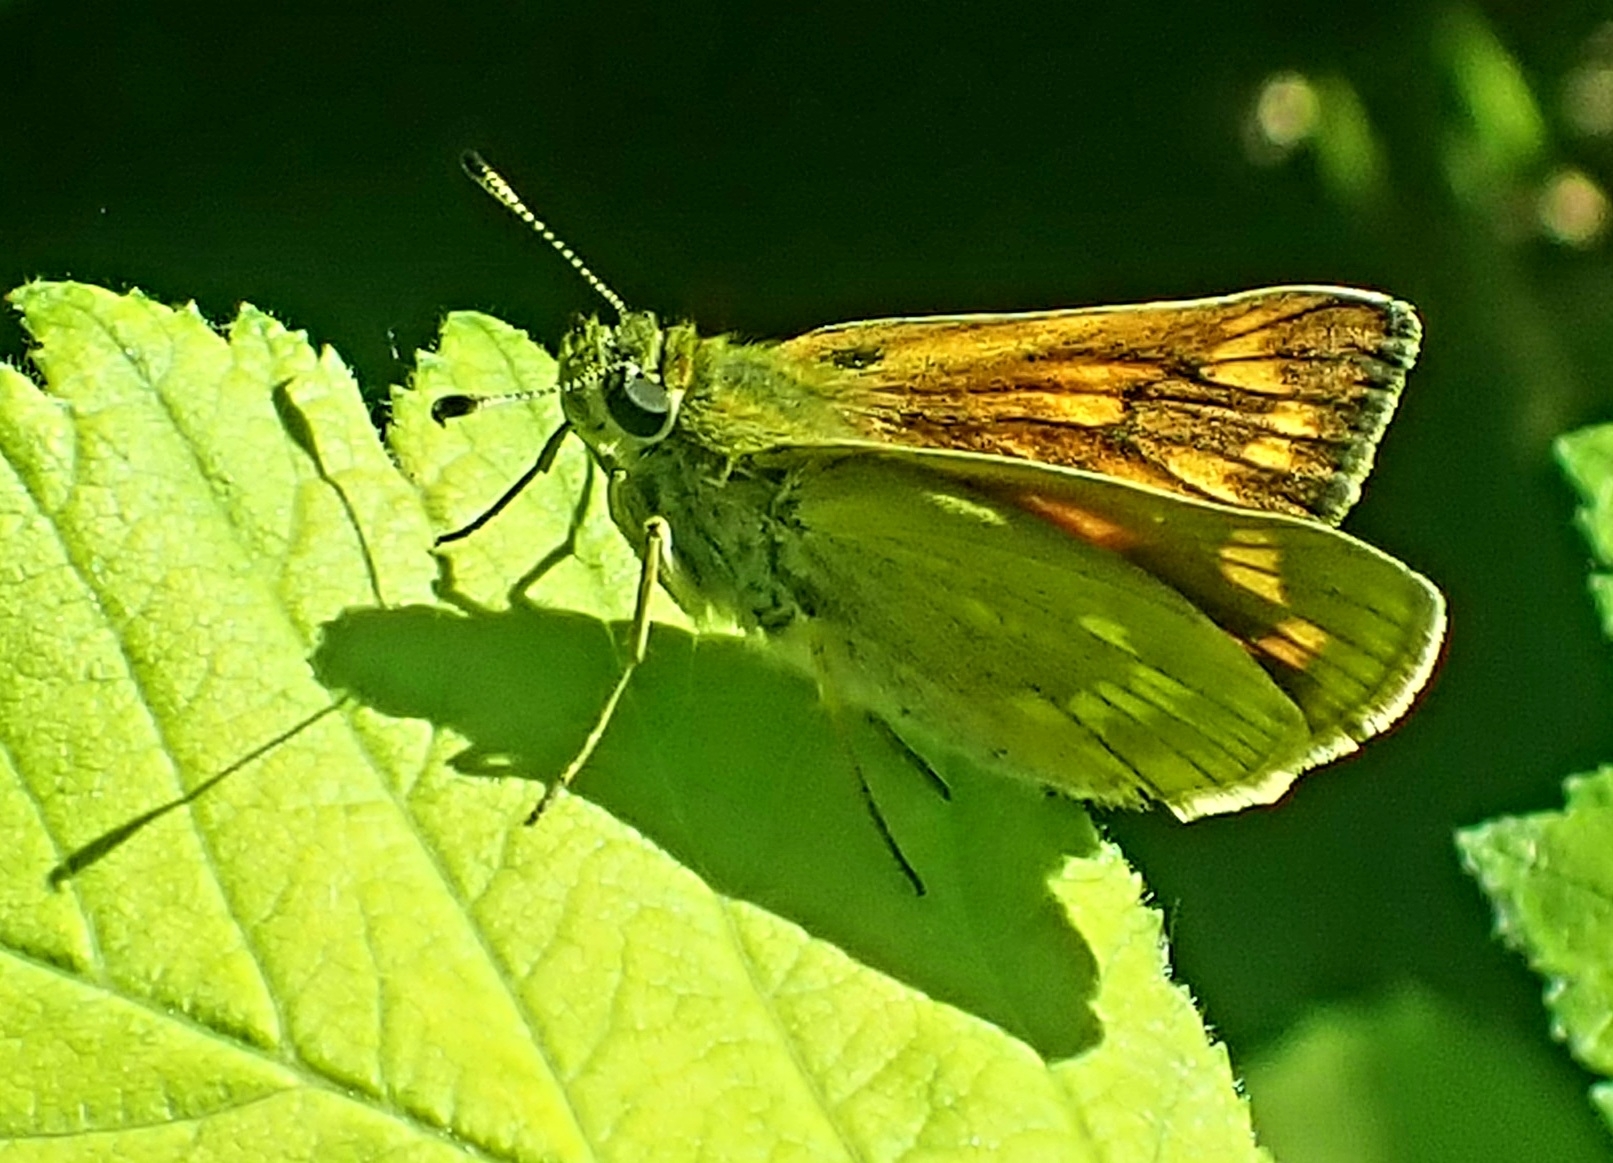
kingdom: Animalia
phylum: Arthropoda
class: Insecta
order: Lepidoptera
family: Hesperiidae
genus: Ochlodes
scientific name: Ochlodes venata
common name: Large skipper
